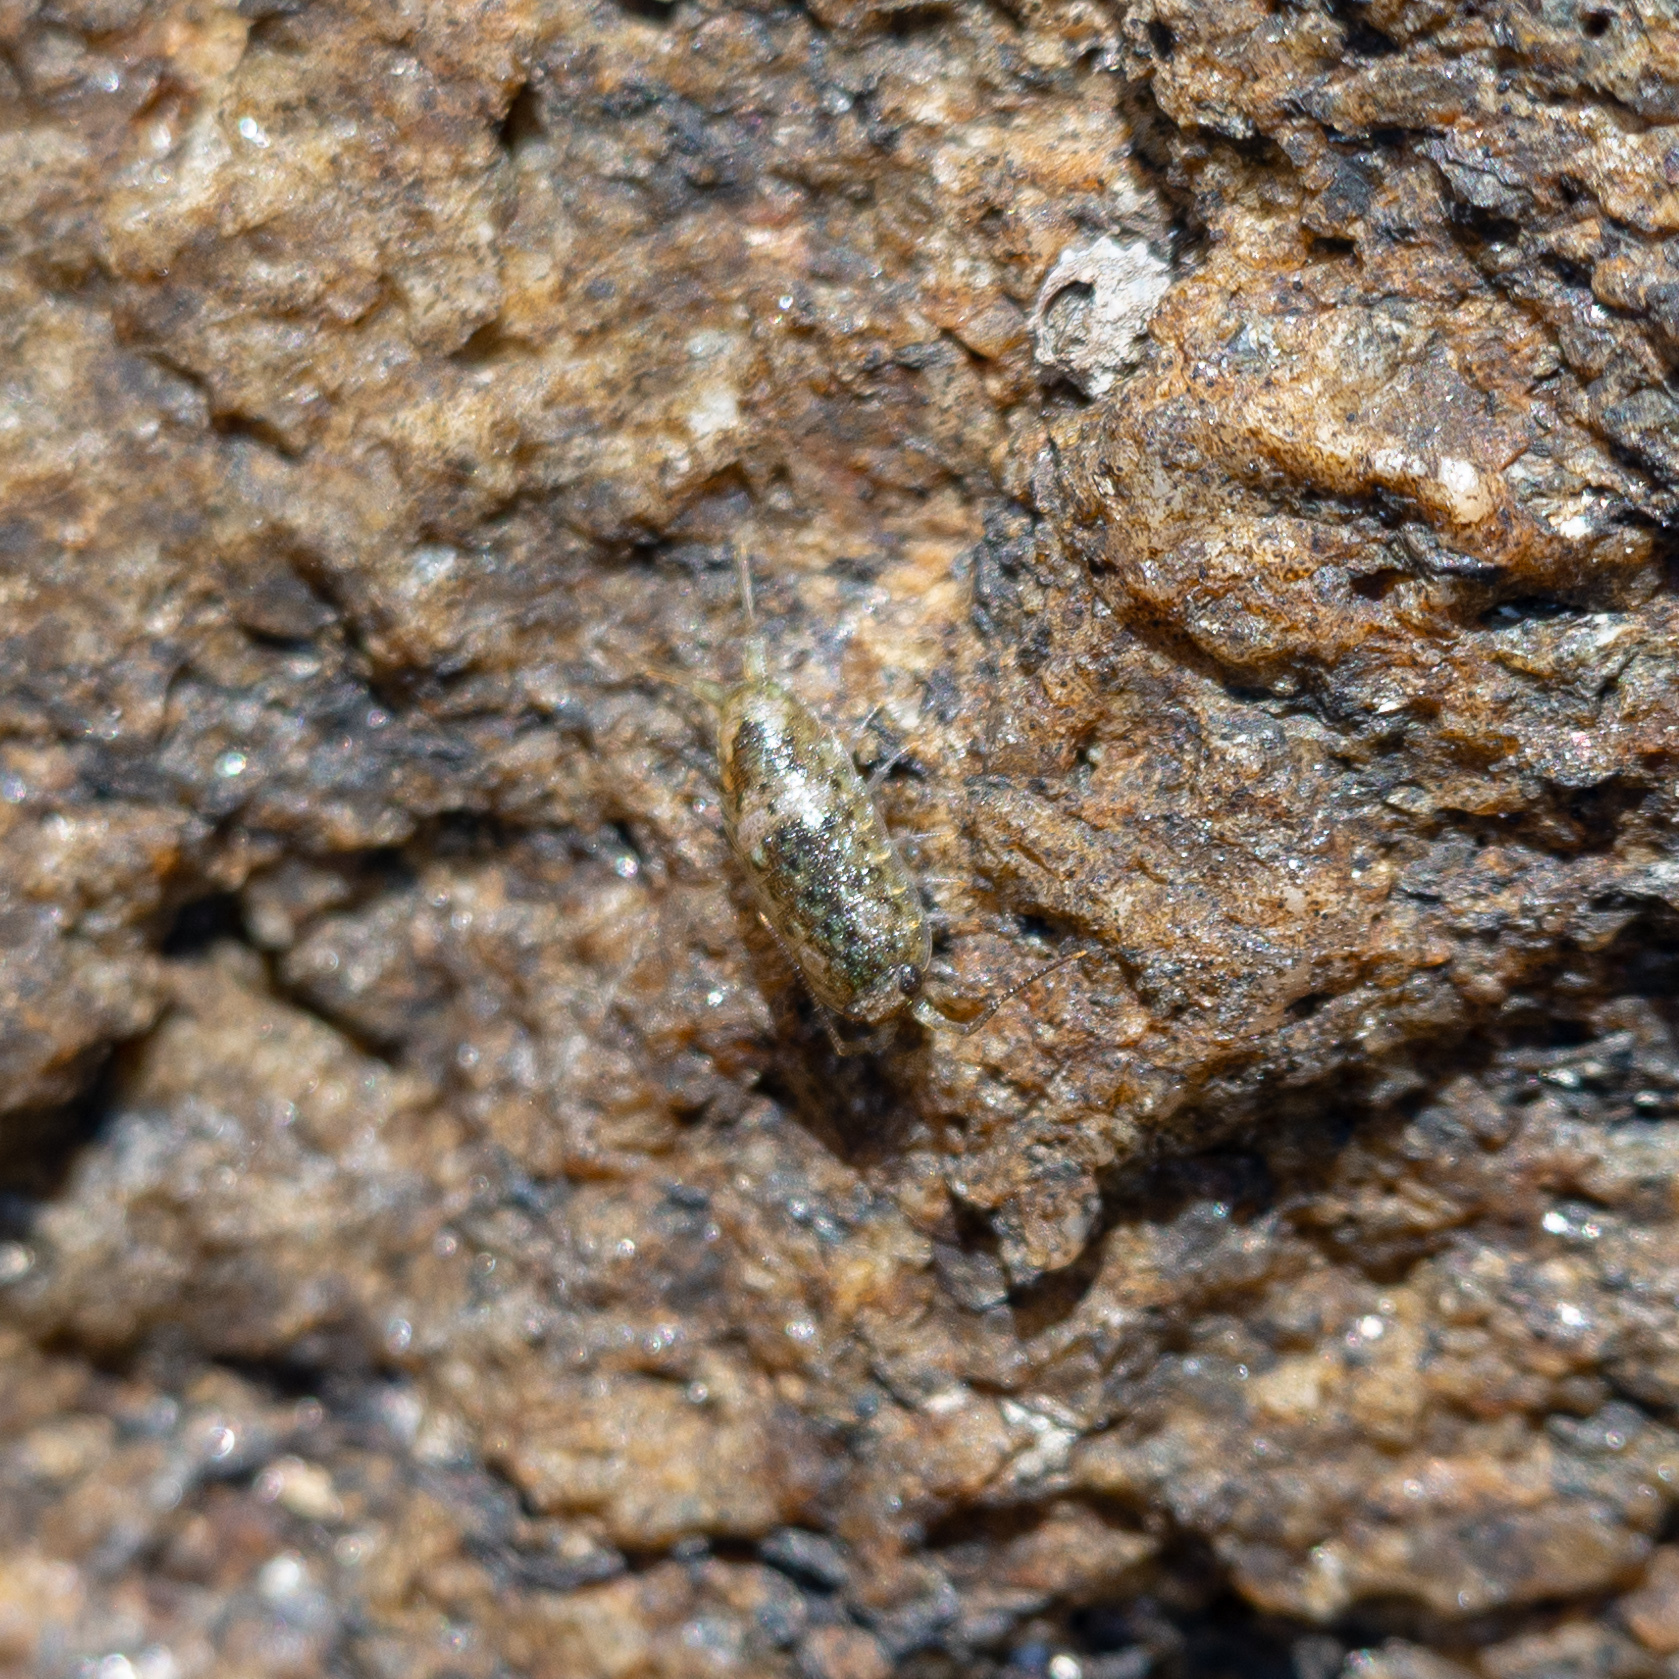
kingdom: Animalia
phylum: Arthropoda
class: Malacostraca
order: Isopoda
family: Ligiidae
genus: Ligia
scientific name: Ligia oceanica
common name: Sea slater
